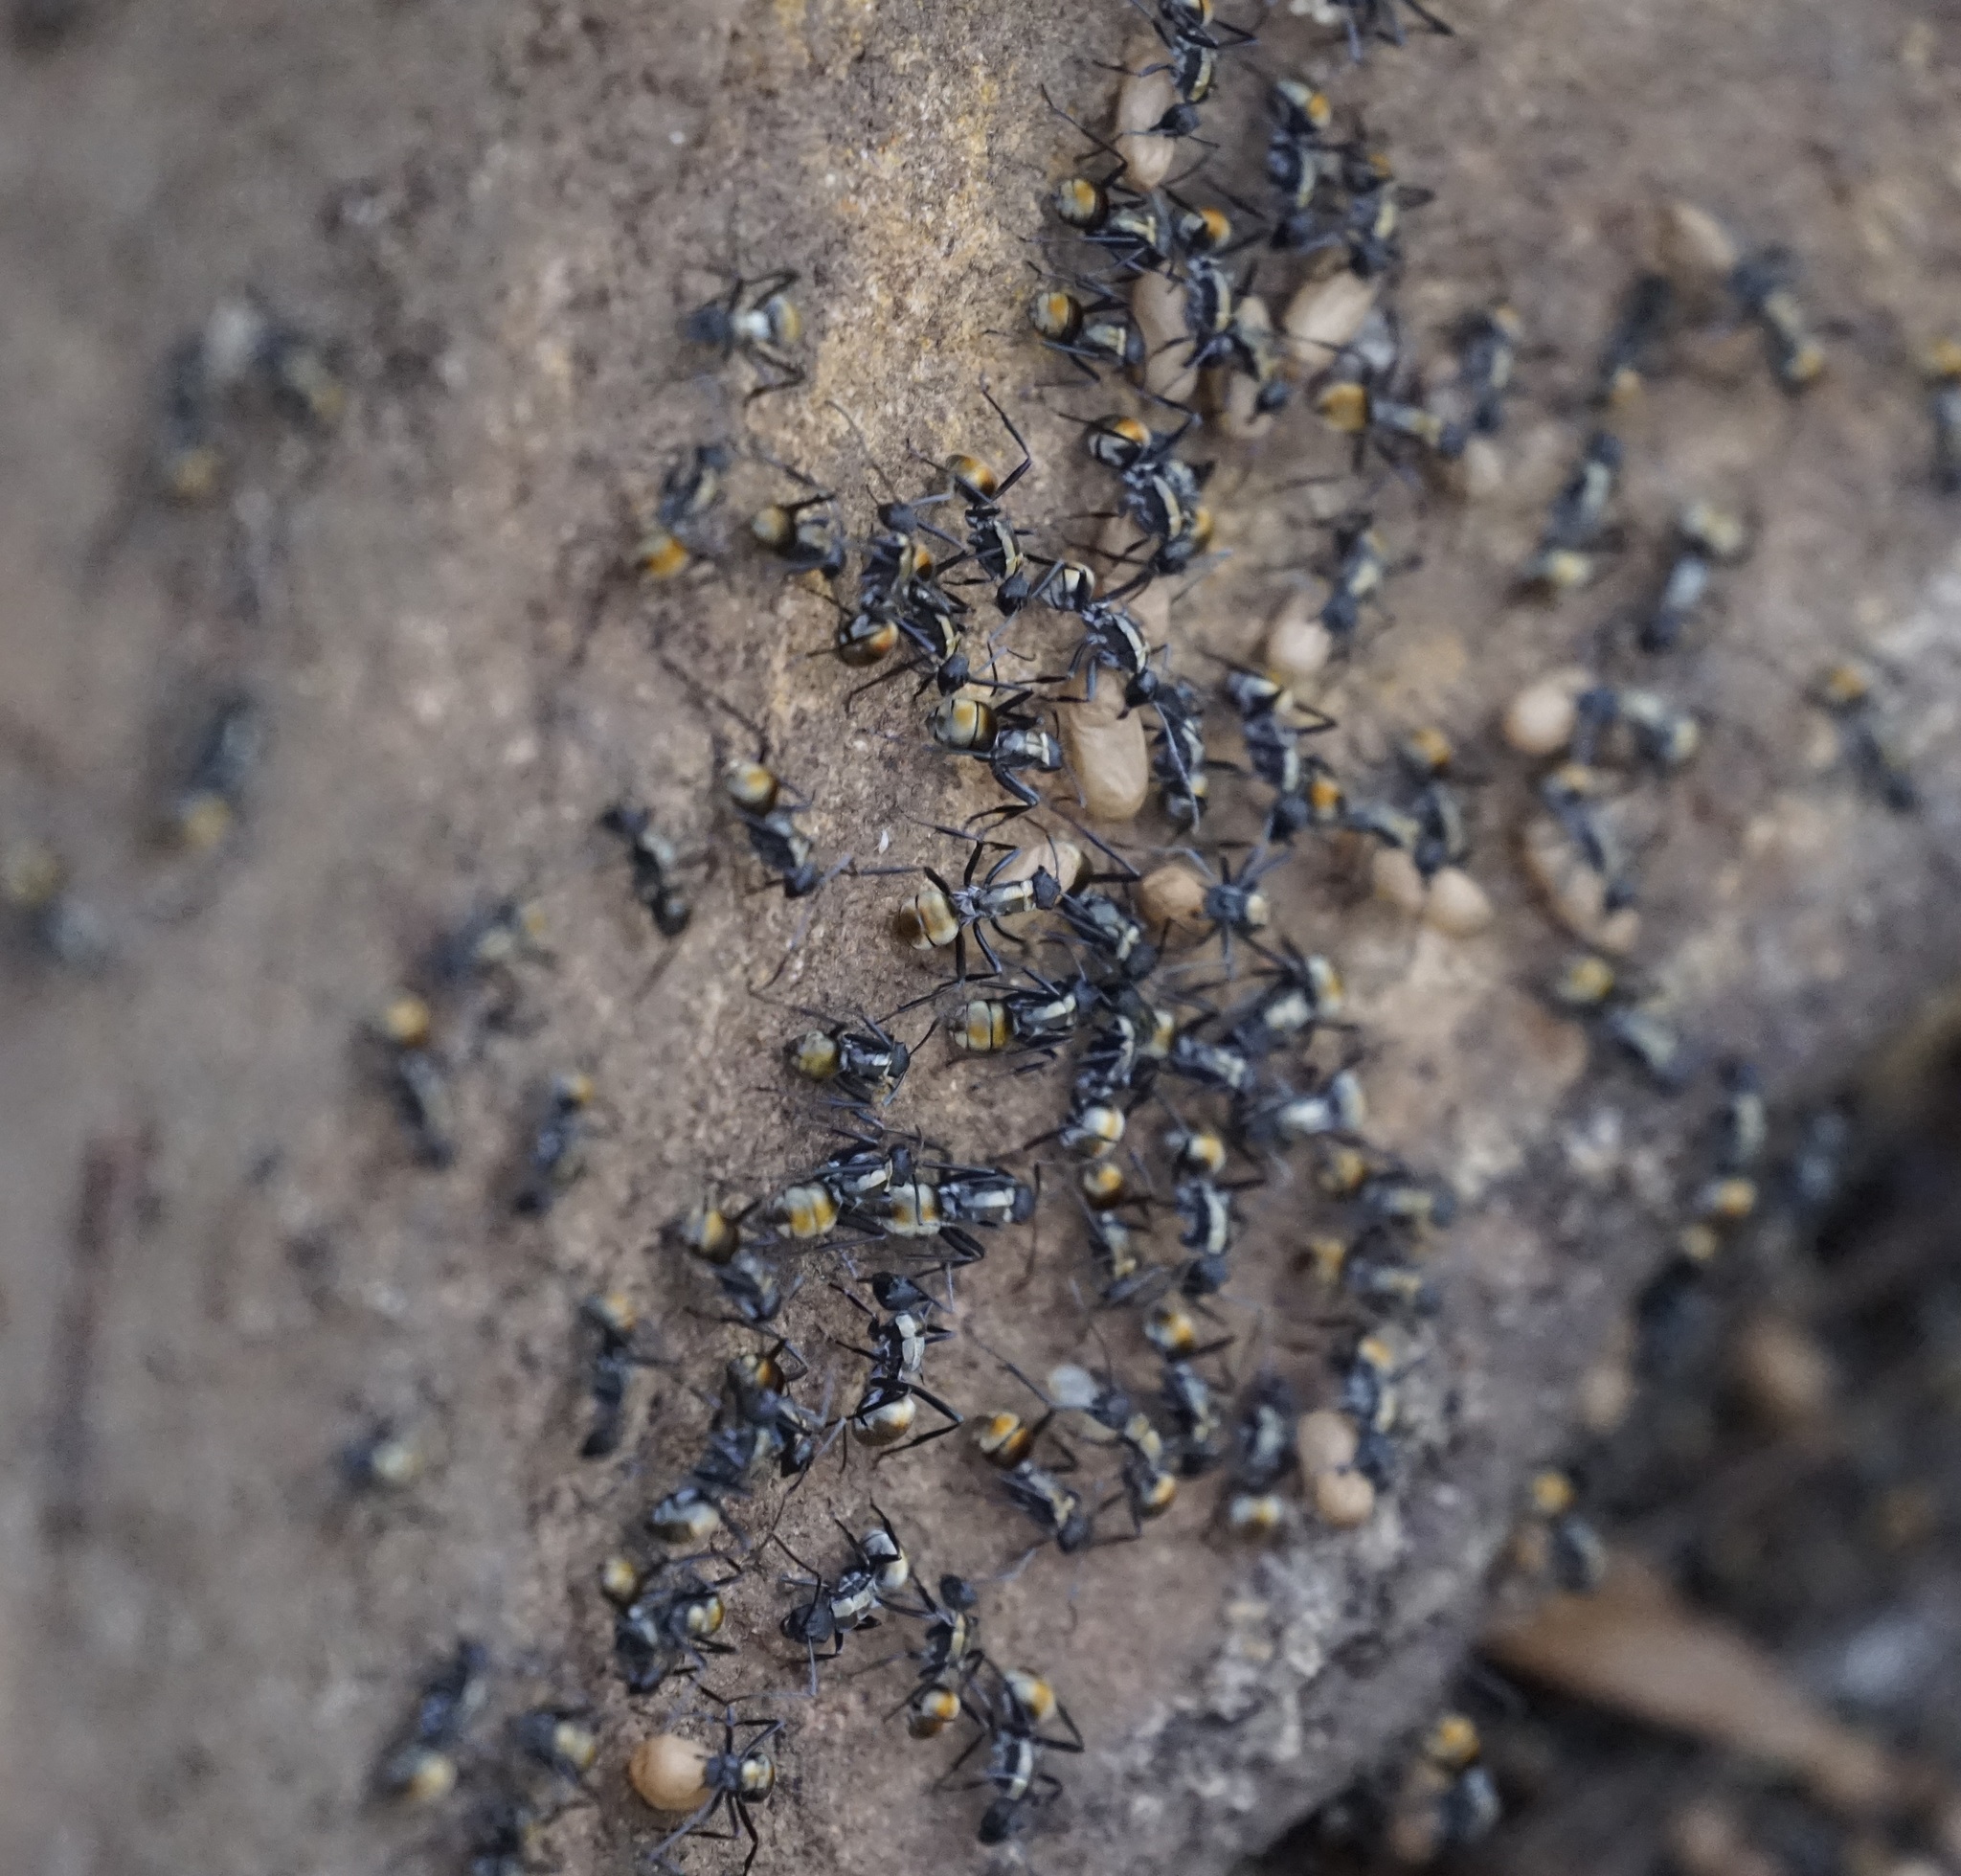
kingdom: Animalia
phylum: Arthropoda
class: Insecta
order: Hymenoptera
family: Formicidae
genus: Polyrhachis
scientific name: Polyrhachis ammon
